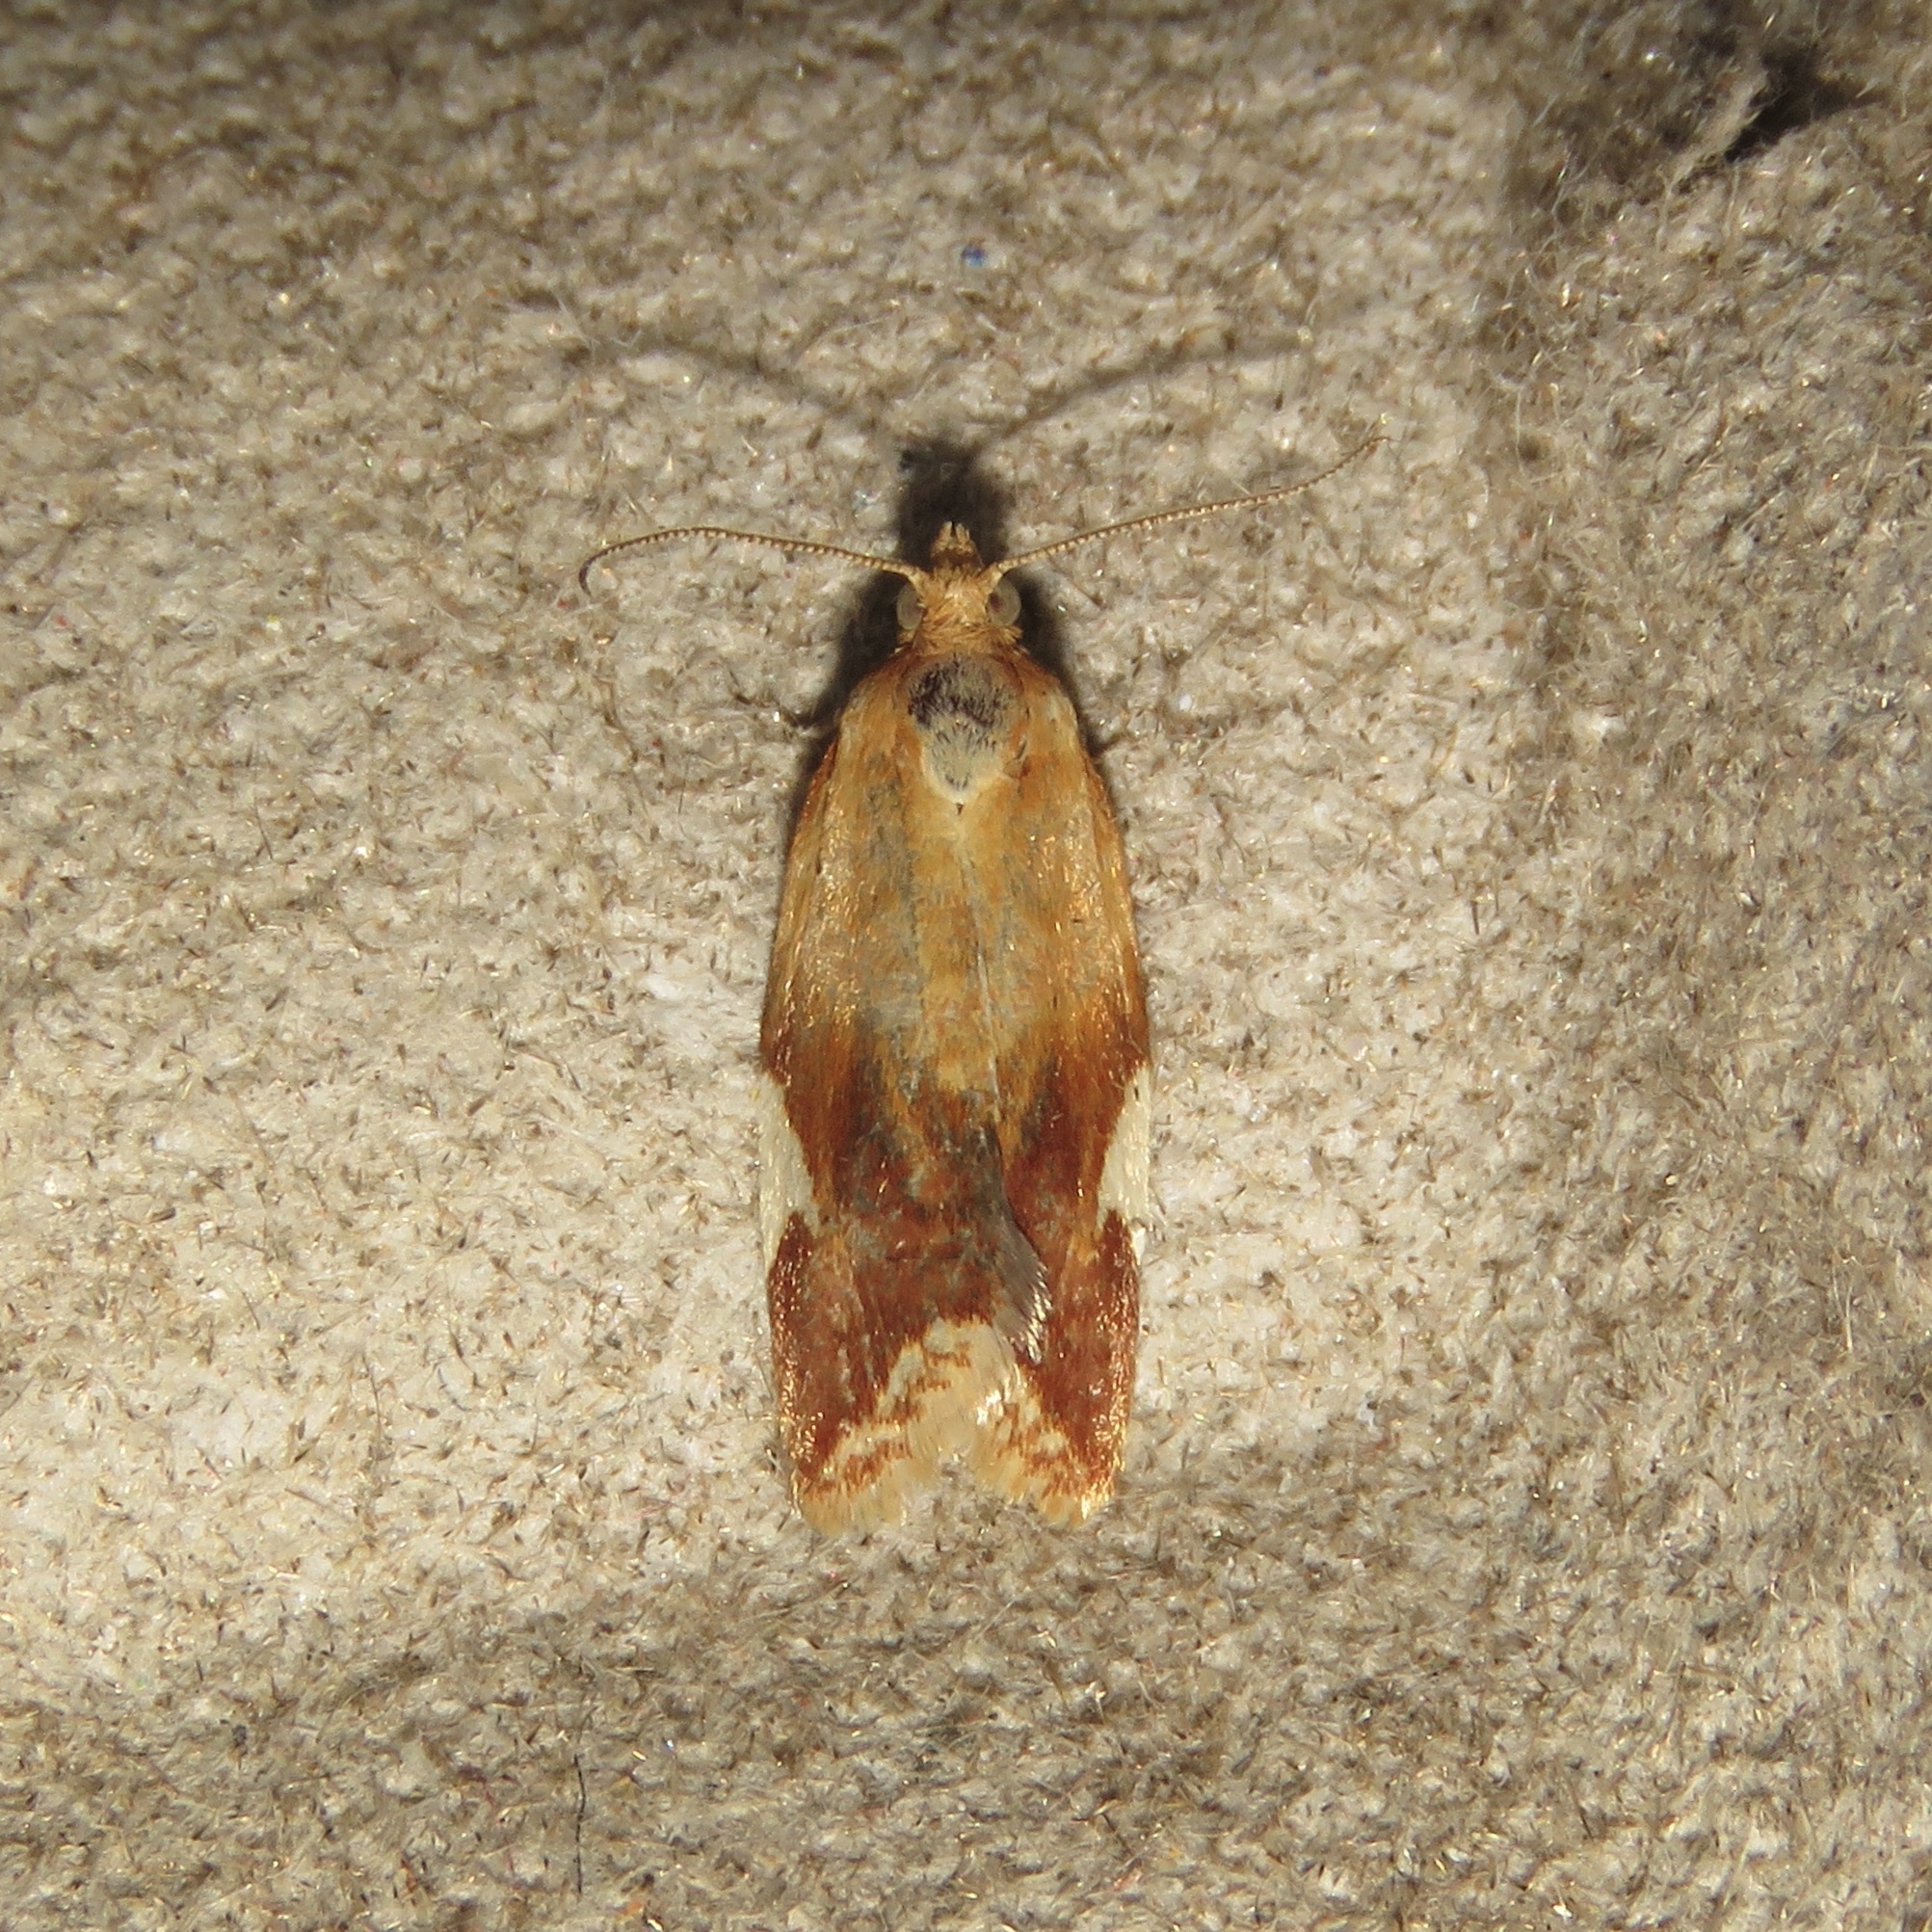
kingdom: Animalia
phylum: Arthropoda
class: Insecta
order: Lepidoptera
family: Tortricidae
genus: Clepsis
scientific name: Clepsis persicana
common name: White triangle tortrix
